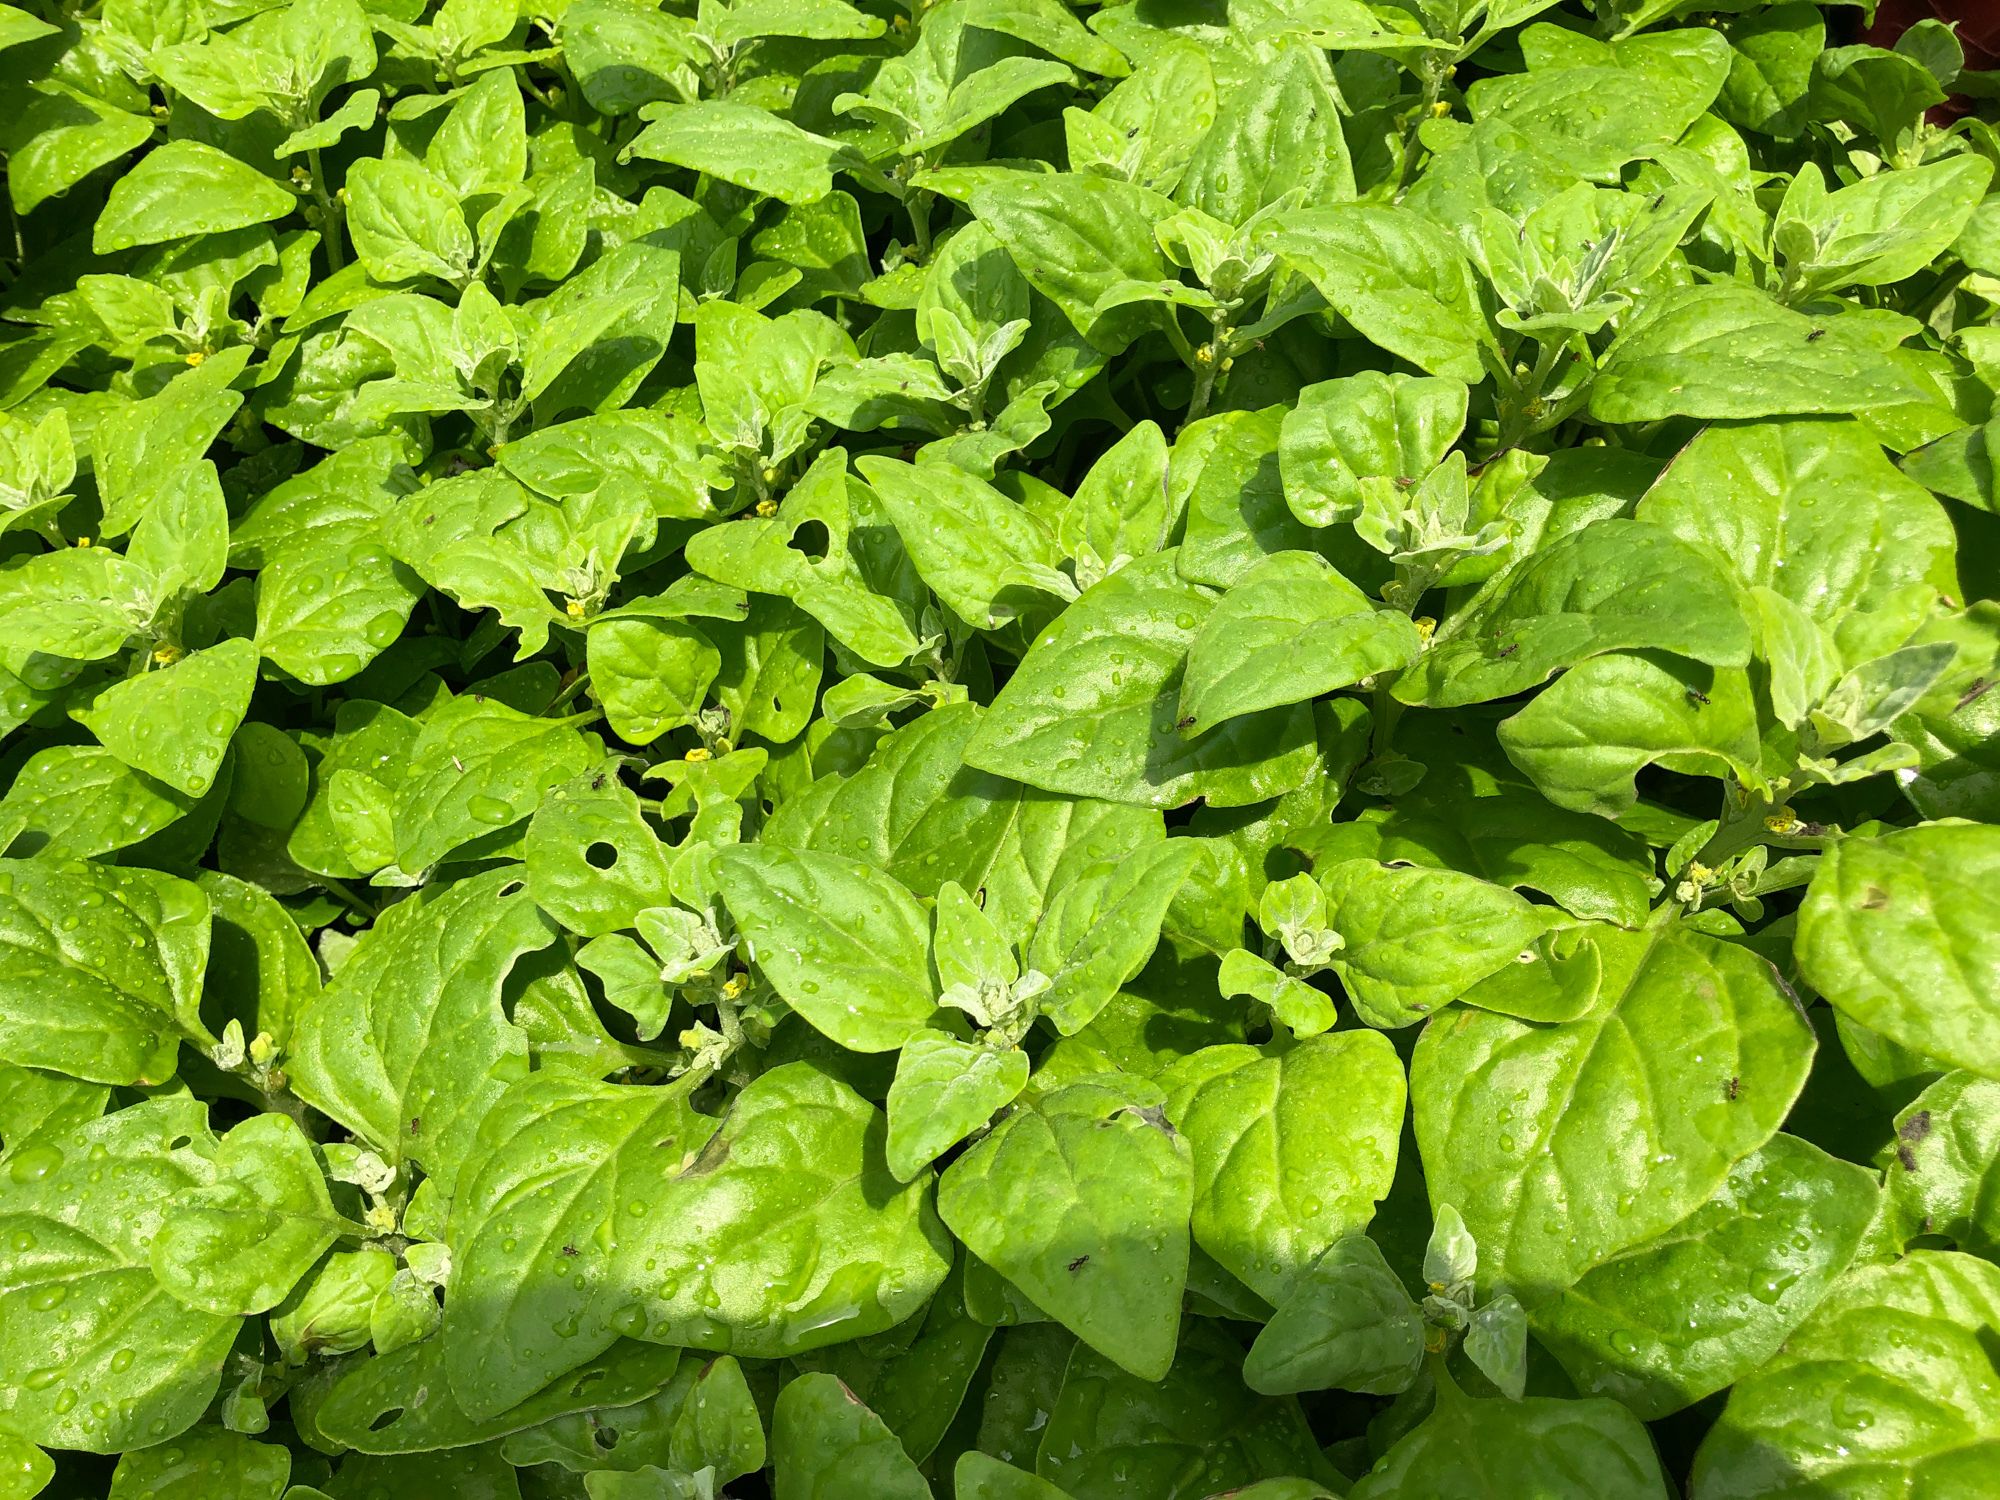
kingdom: Plantae
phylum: Tracheophyta
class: Magnoliopsida
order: Caryophyllales
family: Aizoaceae
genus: Tetragonia
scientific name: Tetragonia tetragonoides
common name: New zealand-spinach
